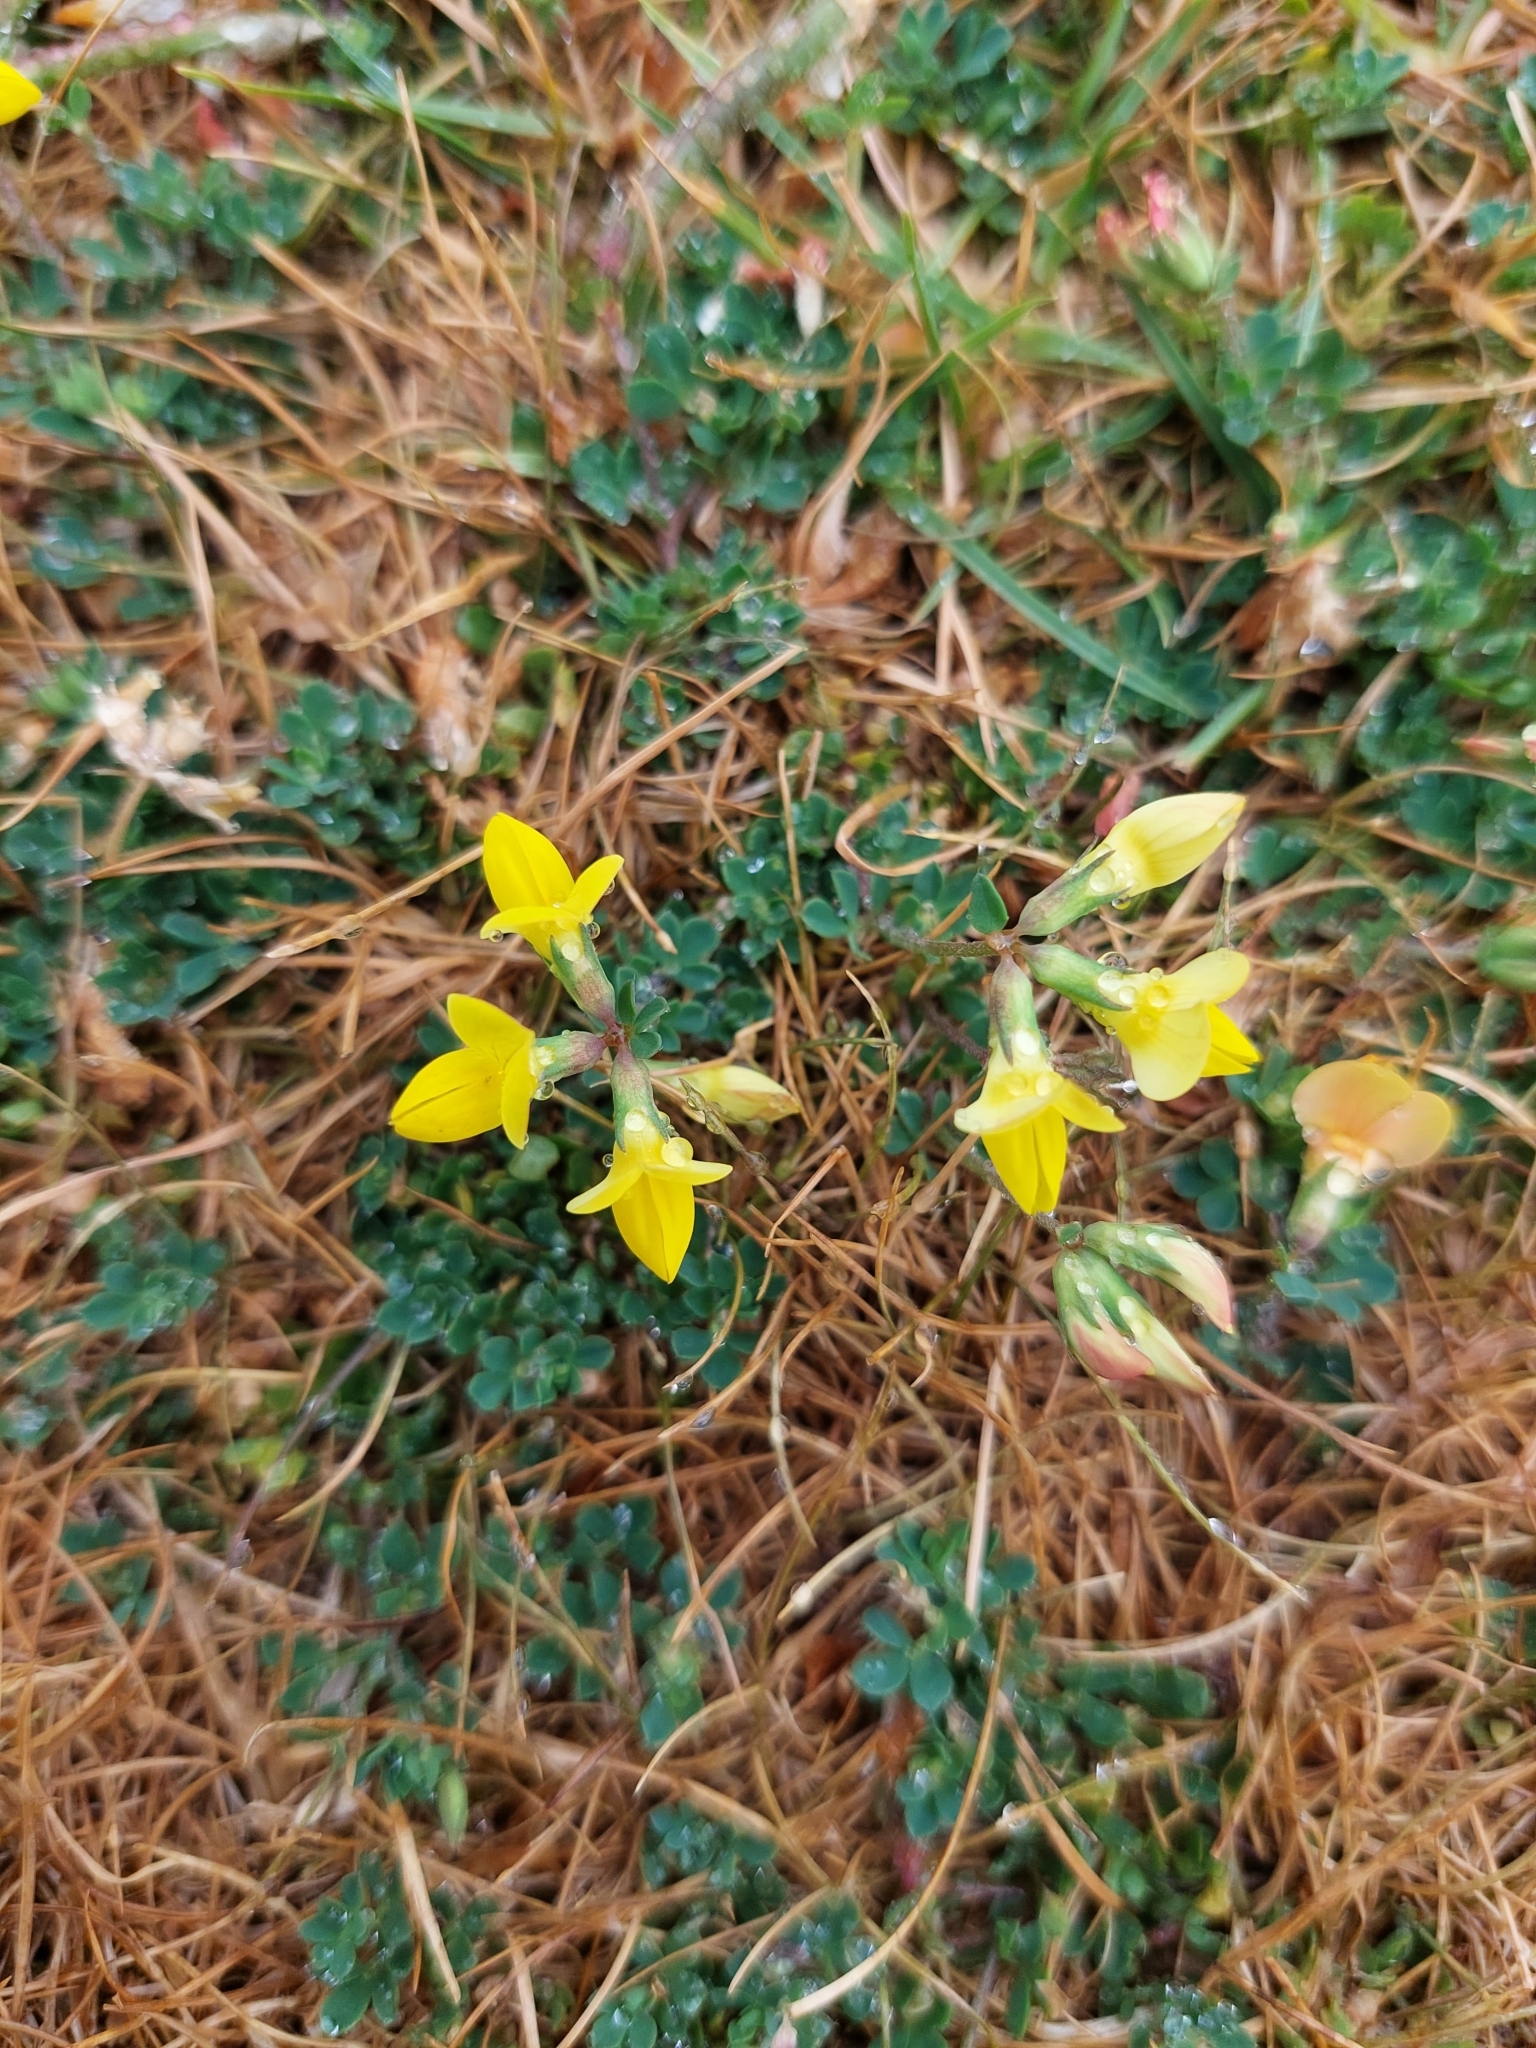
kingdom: Plantae
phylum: Tracheophyta
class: Magnoliopsida
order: Fabales
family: Fabaceae
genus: Lotus
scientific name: Lotus corniculatus
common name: Common bird's-foot-trefoil
